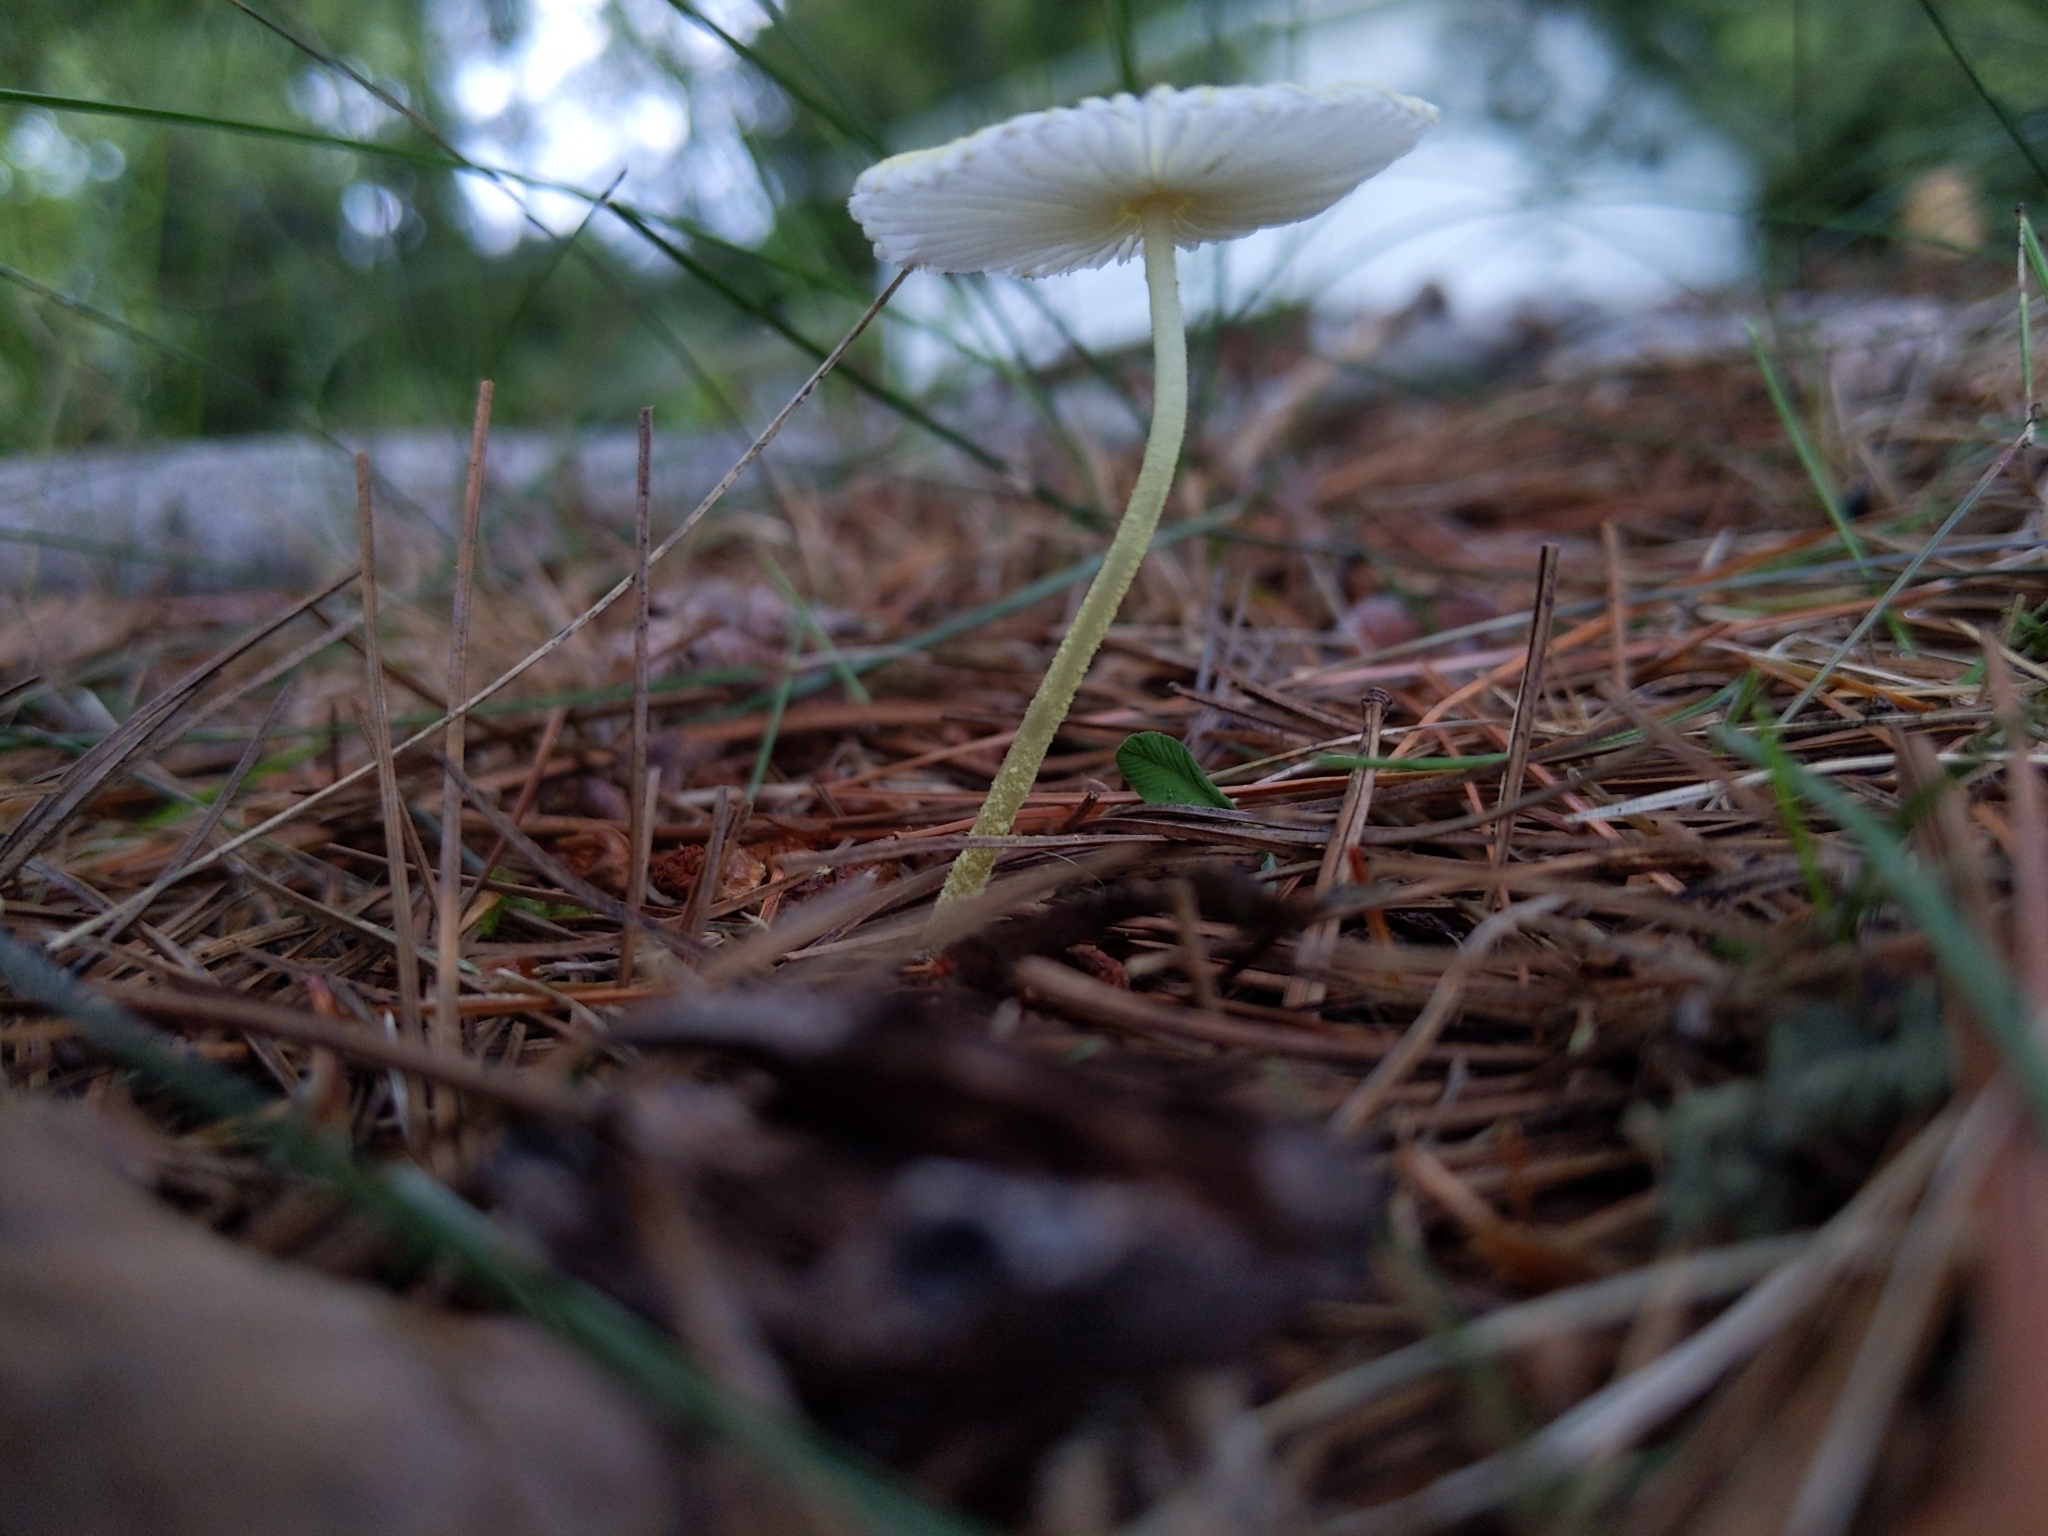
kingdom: Fungi
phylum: Basidiomycota
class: Agaricomycetes
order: Agaricales
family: Agaricaceae
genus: Leucocoprinus
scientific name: Leucocoprinus fragilissimus
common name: Fragile dapperling
